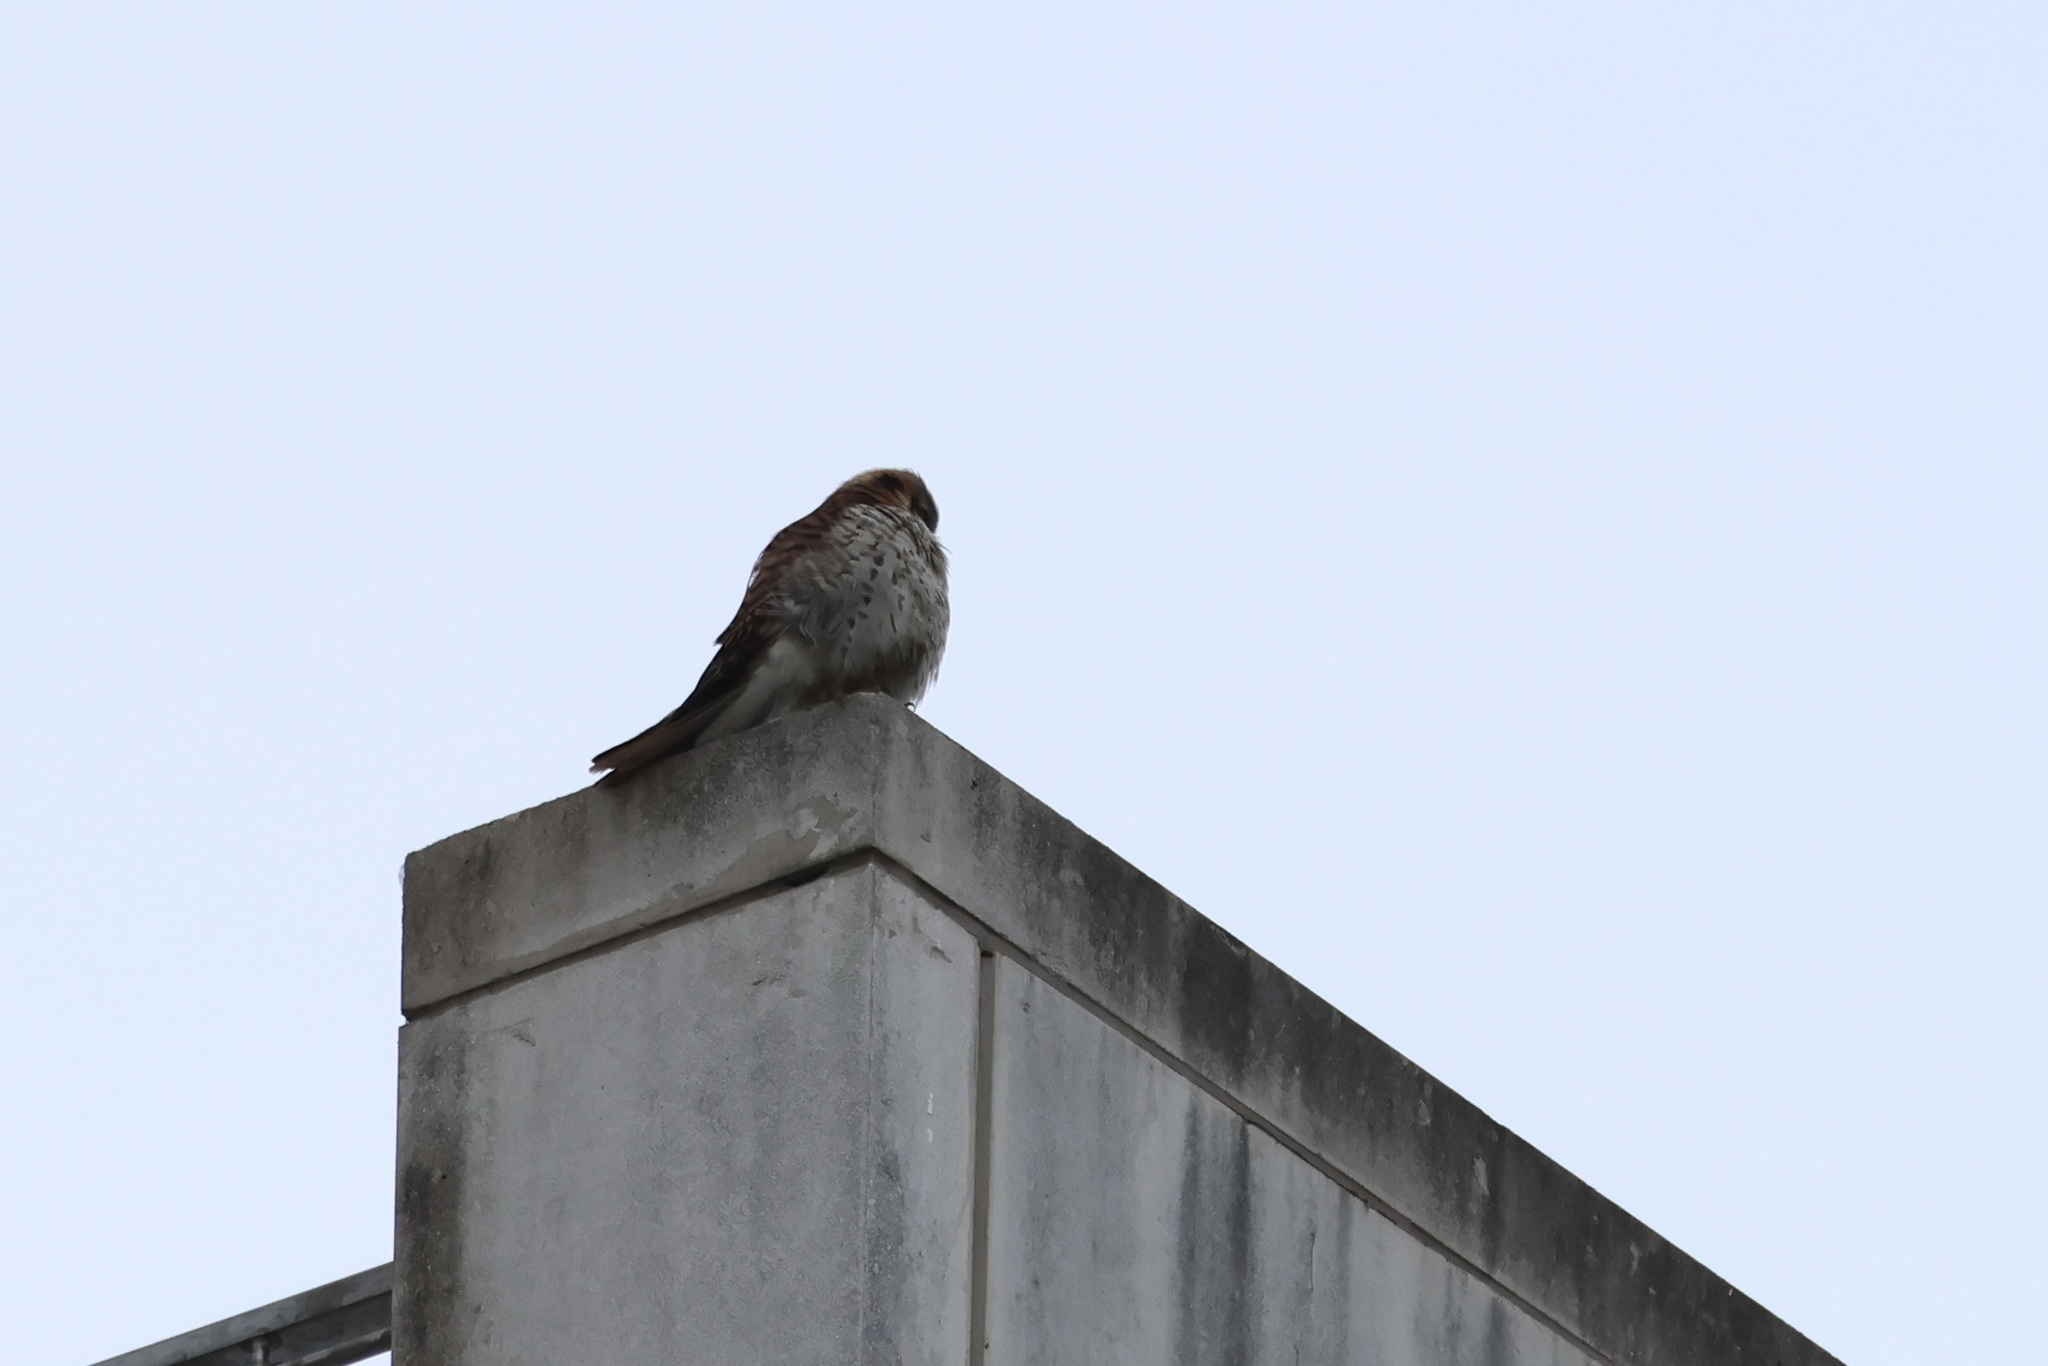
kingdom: Animalia
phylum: Chordata
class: Aves
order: Falconiformes
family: Falconidae
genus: Falco
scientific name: Falco sparverius
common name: American kestrel
